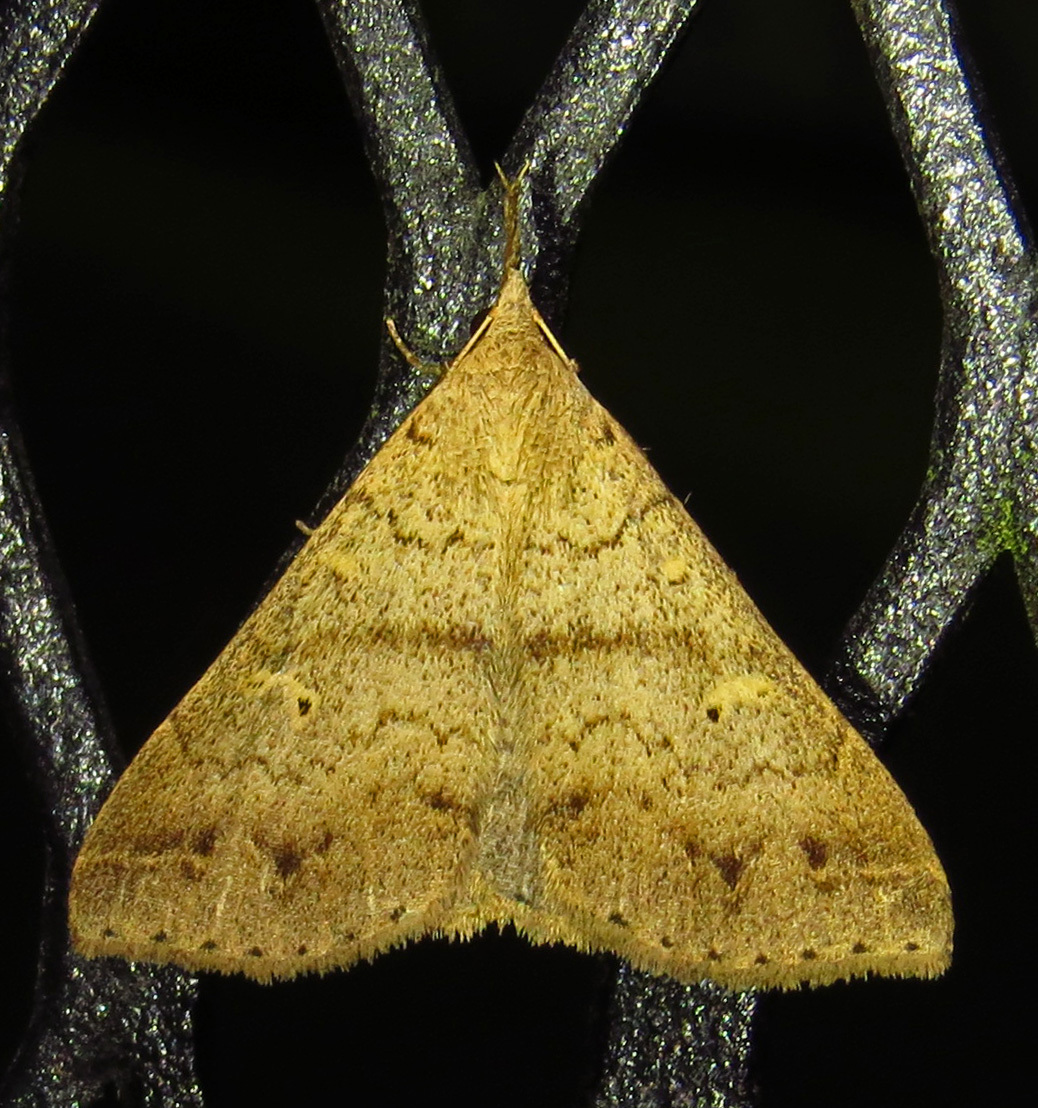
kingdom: Animalia
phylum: Arthropoda
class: Insecta
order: Lepidoptera
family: Erebidae
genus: Renia
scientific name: Renia discoloralis
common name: Discolored renia moth
